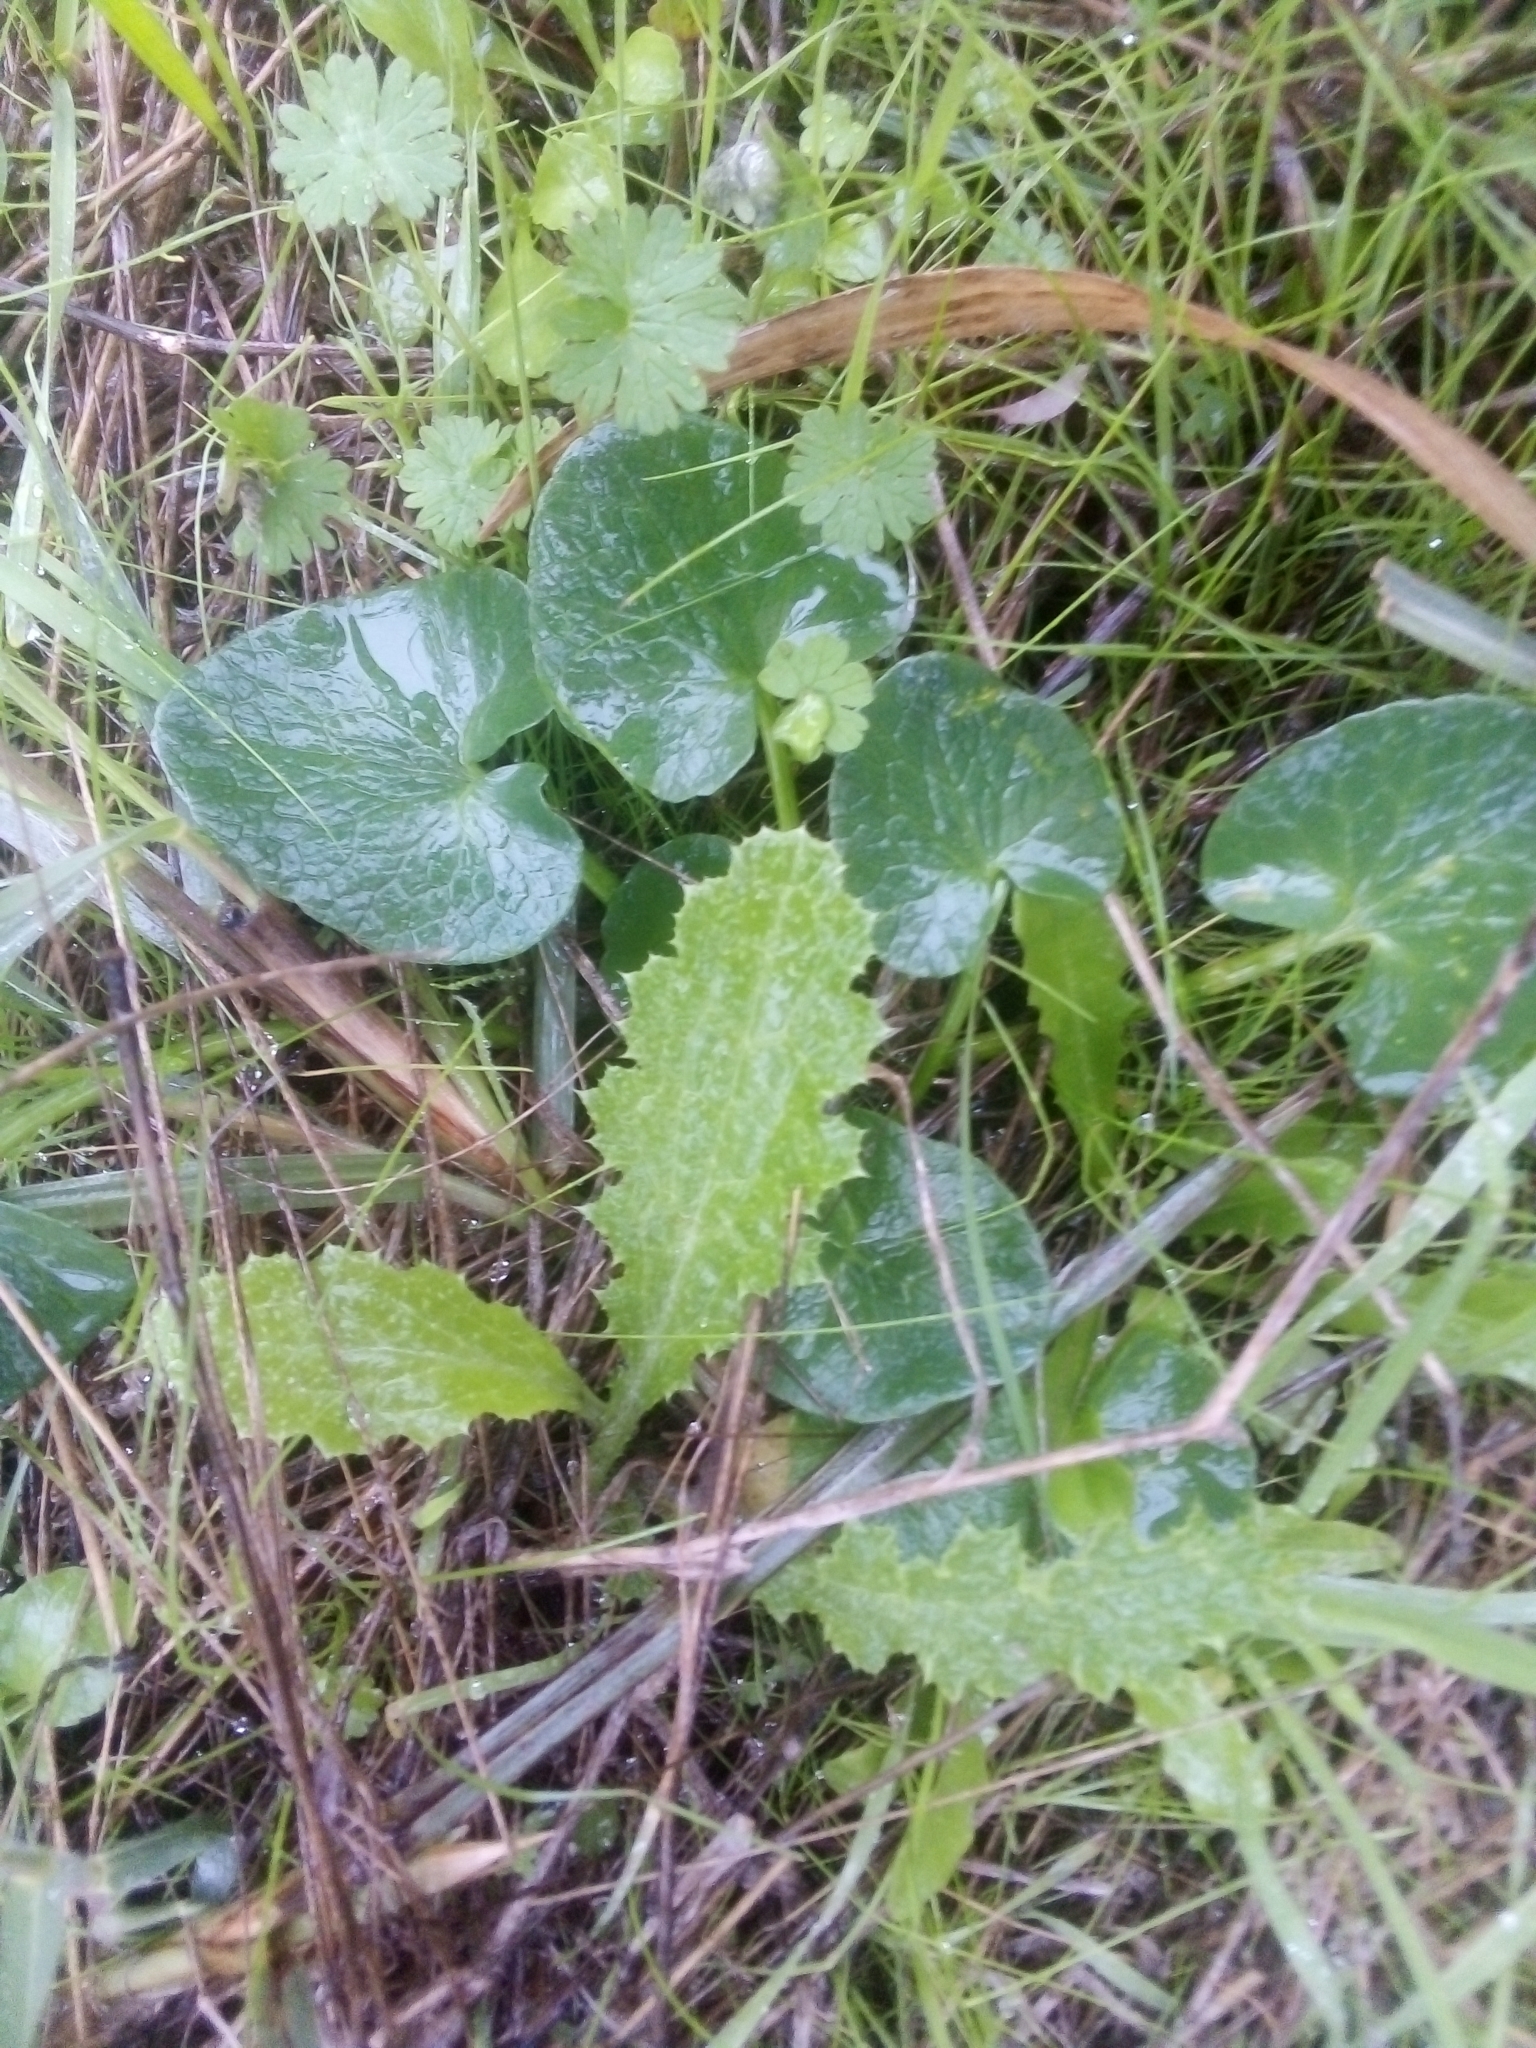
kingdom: Plantae
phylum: Tracheophyta
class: Magnoliopsida
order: Ranunculales
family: Ranunculaceae
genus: Ficaria
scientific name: Ficaria verna
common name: Lesser celandine
